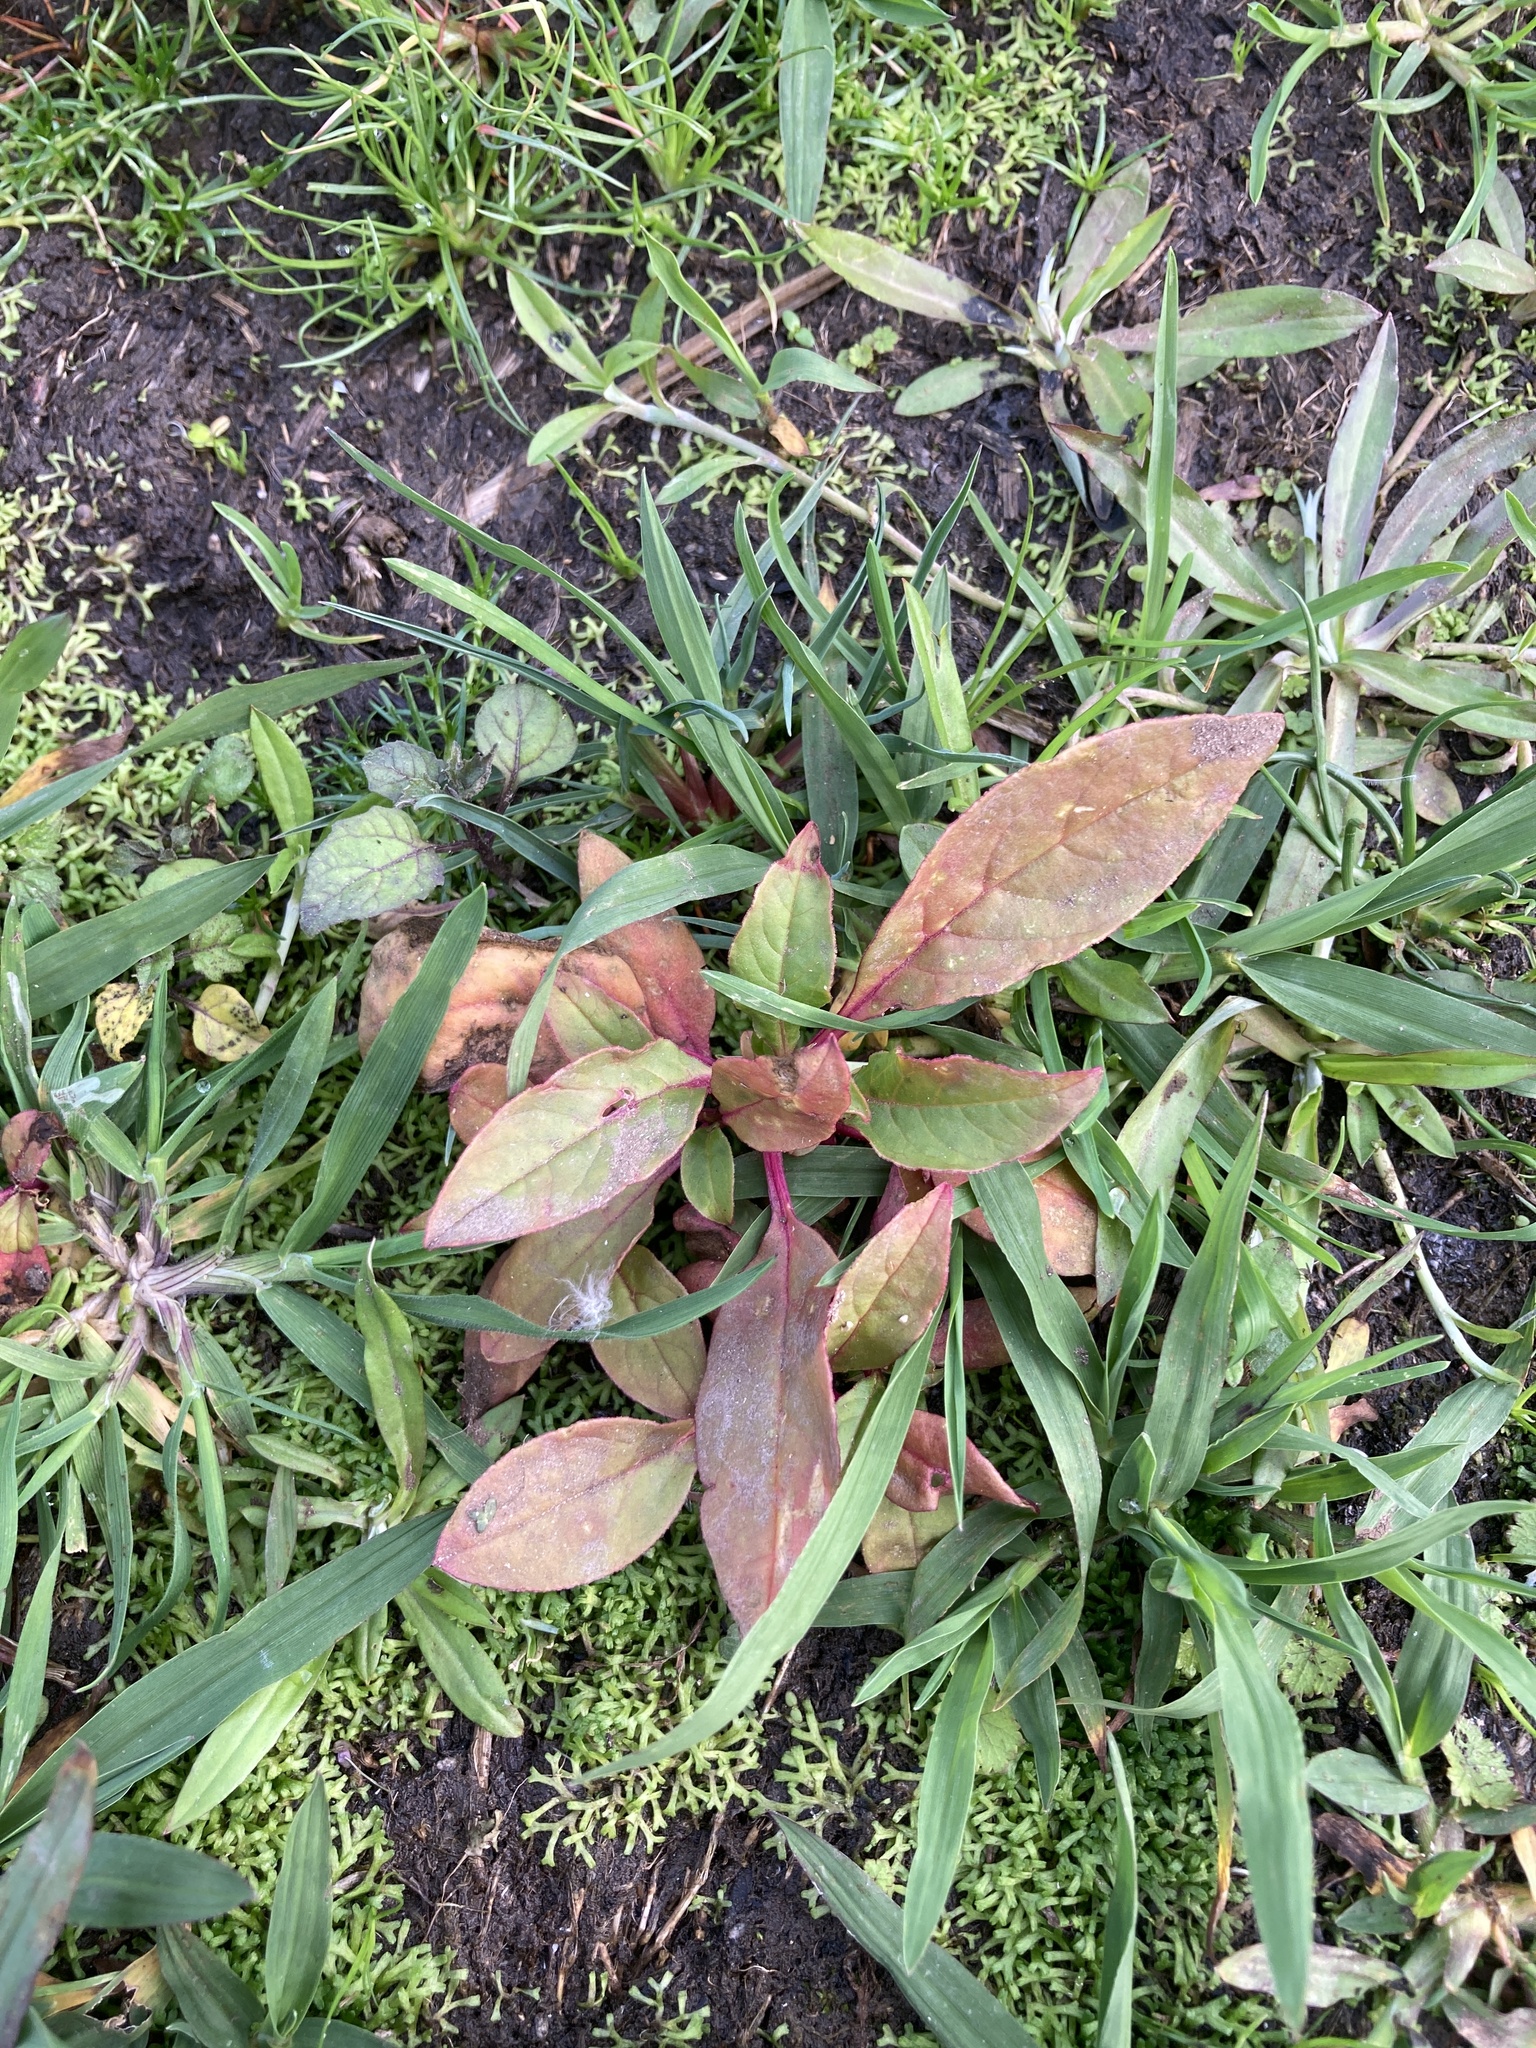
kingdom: Plantae
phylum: Tracheophyta
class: Magnoliopsida
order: Caryophyllales
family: Phytolaccaceae
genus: Phytolacca
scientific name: Phytolacca icosandra
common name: Button pokeweed
